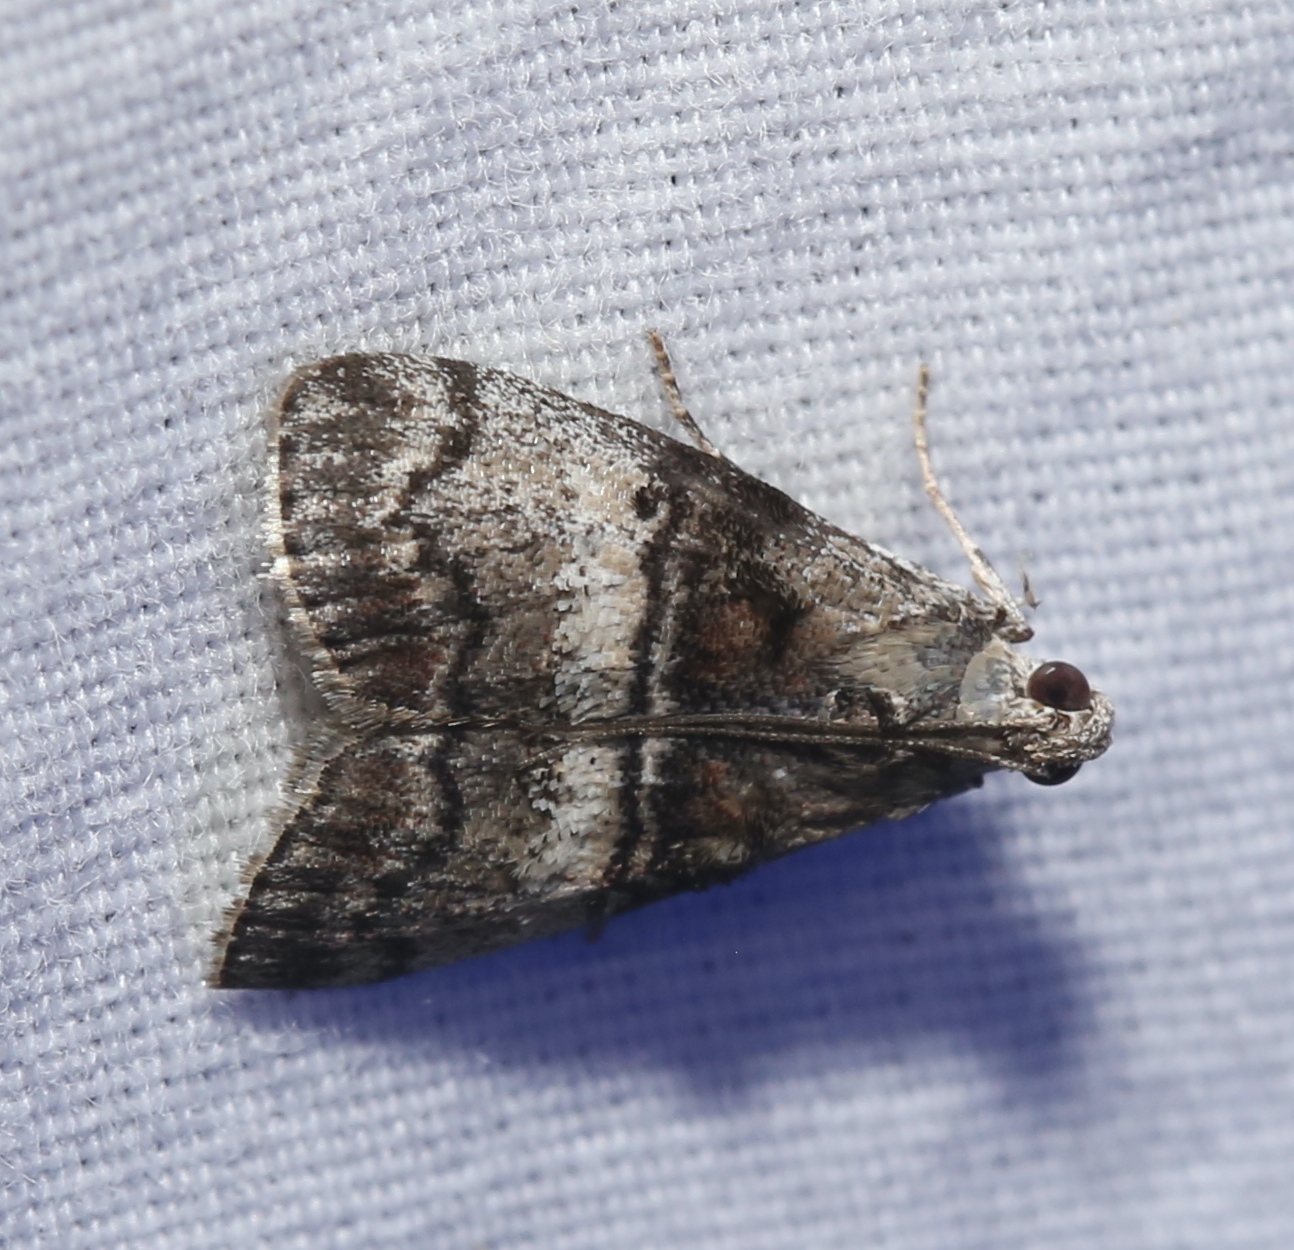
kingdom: Animalia
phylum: Arthropoda
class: Insecta
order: Lepidoptera
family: Pyralidae
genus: Pococera
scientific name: Pococera asperatella
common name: Maple webworm moth
